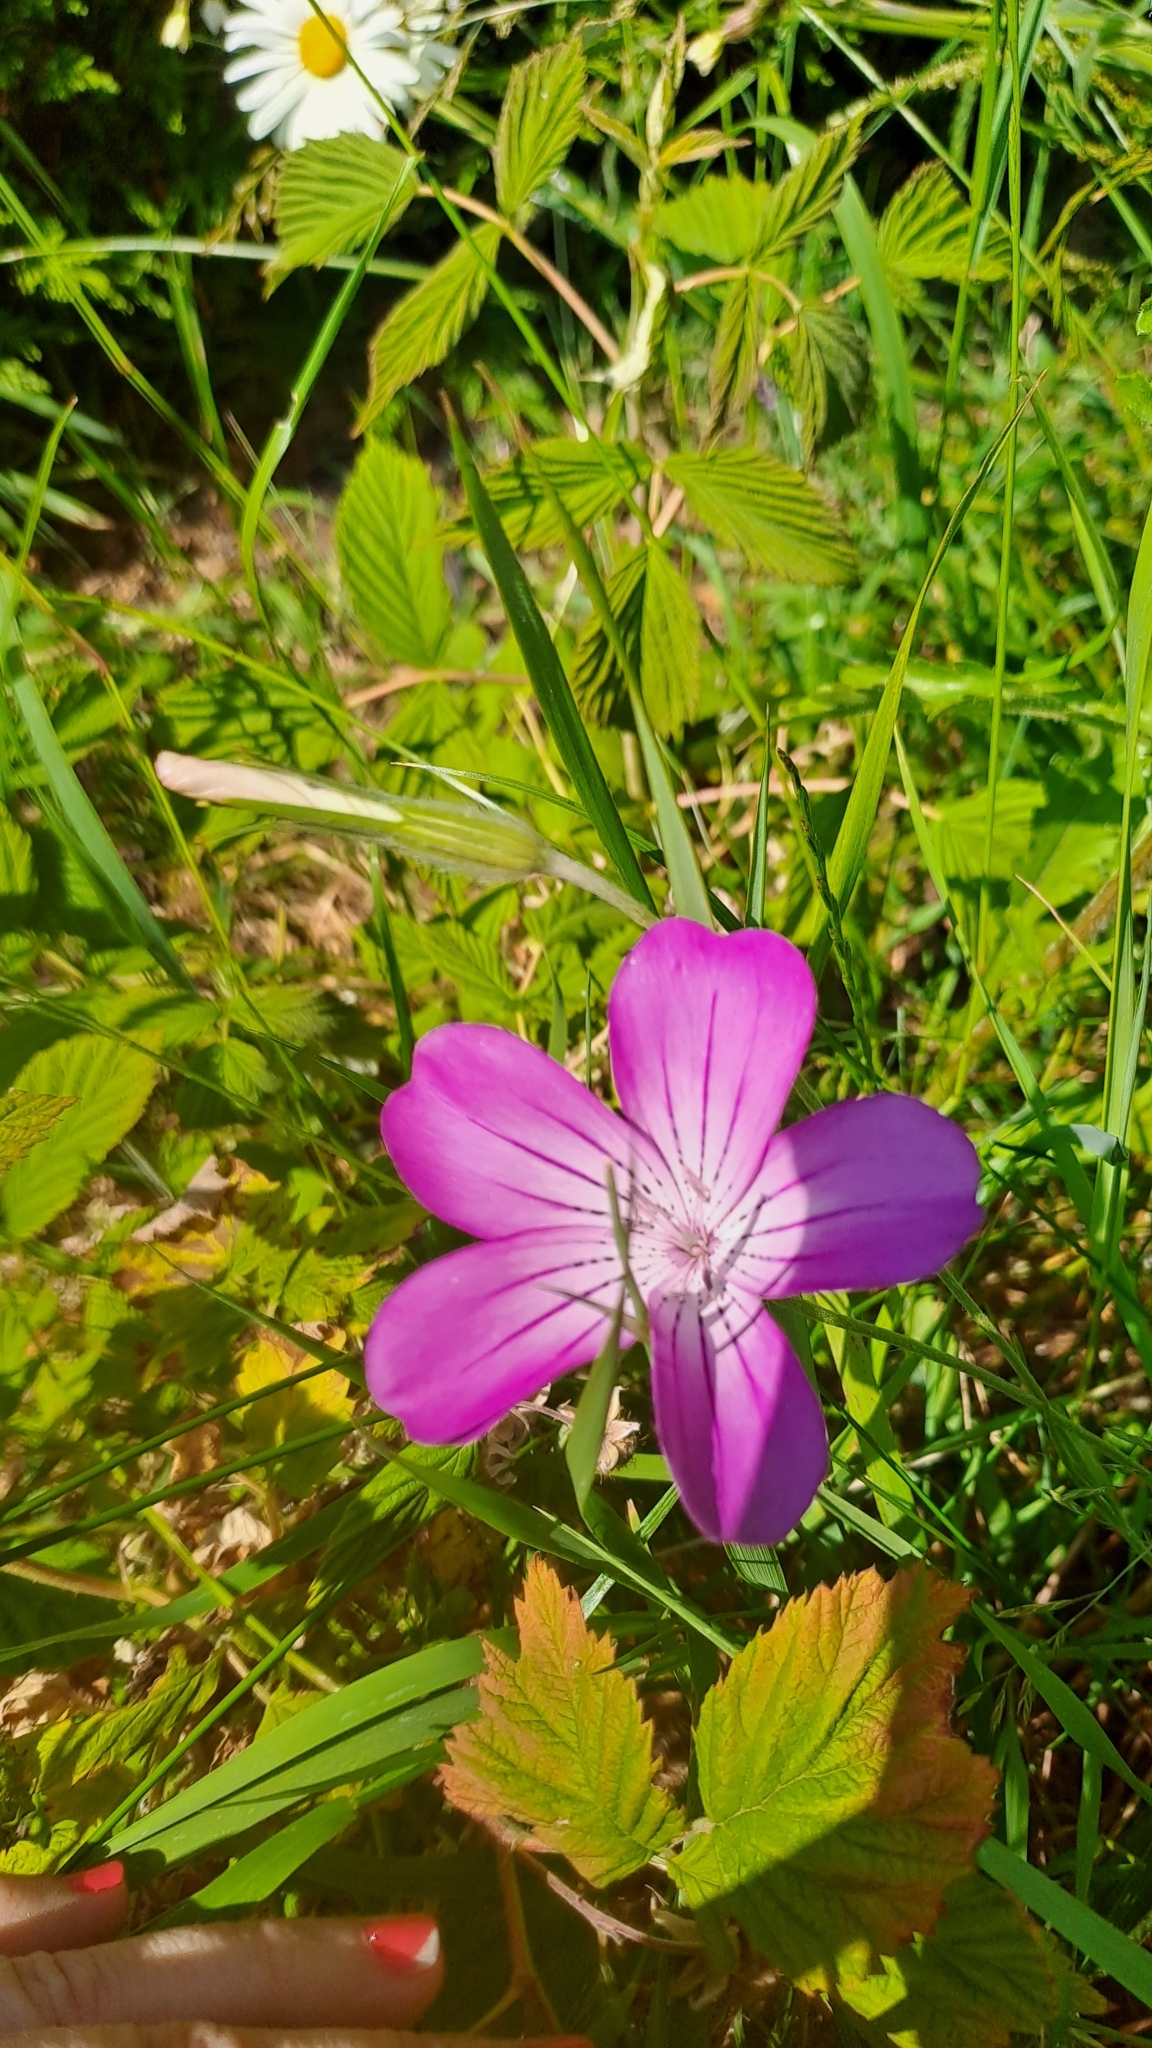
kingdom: Plantae
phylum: Tracheophyta
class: Magnoliopsida
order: Caryophyllales
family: Caryophyllaceae
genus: Agrostemma
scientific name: Agrostemma githago
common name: Common corncockle
